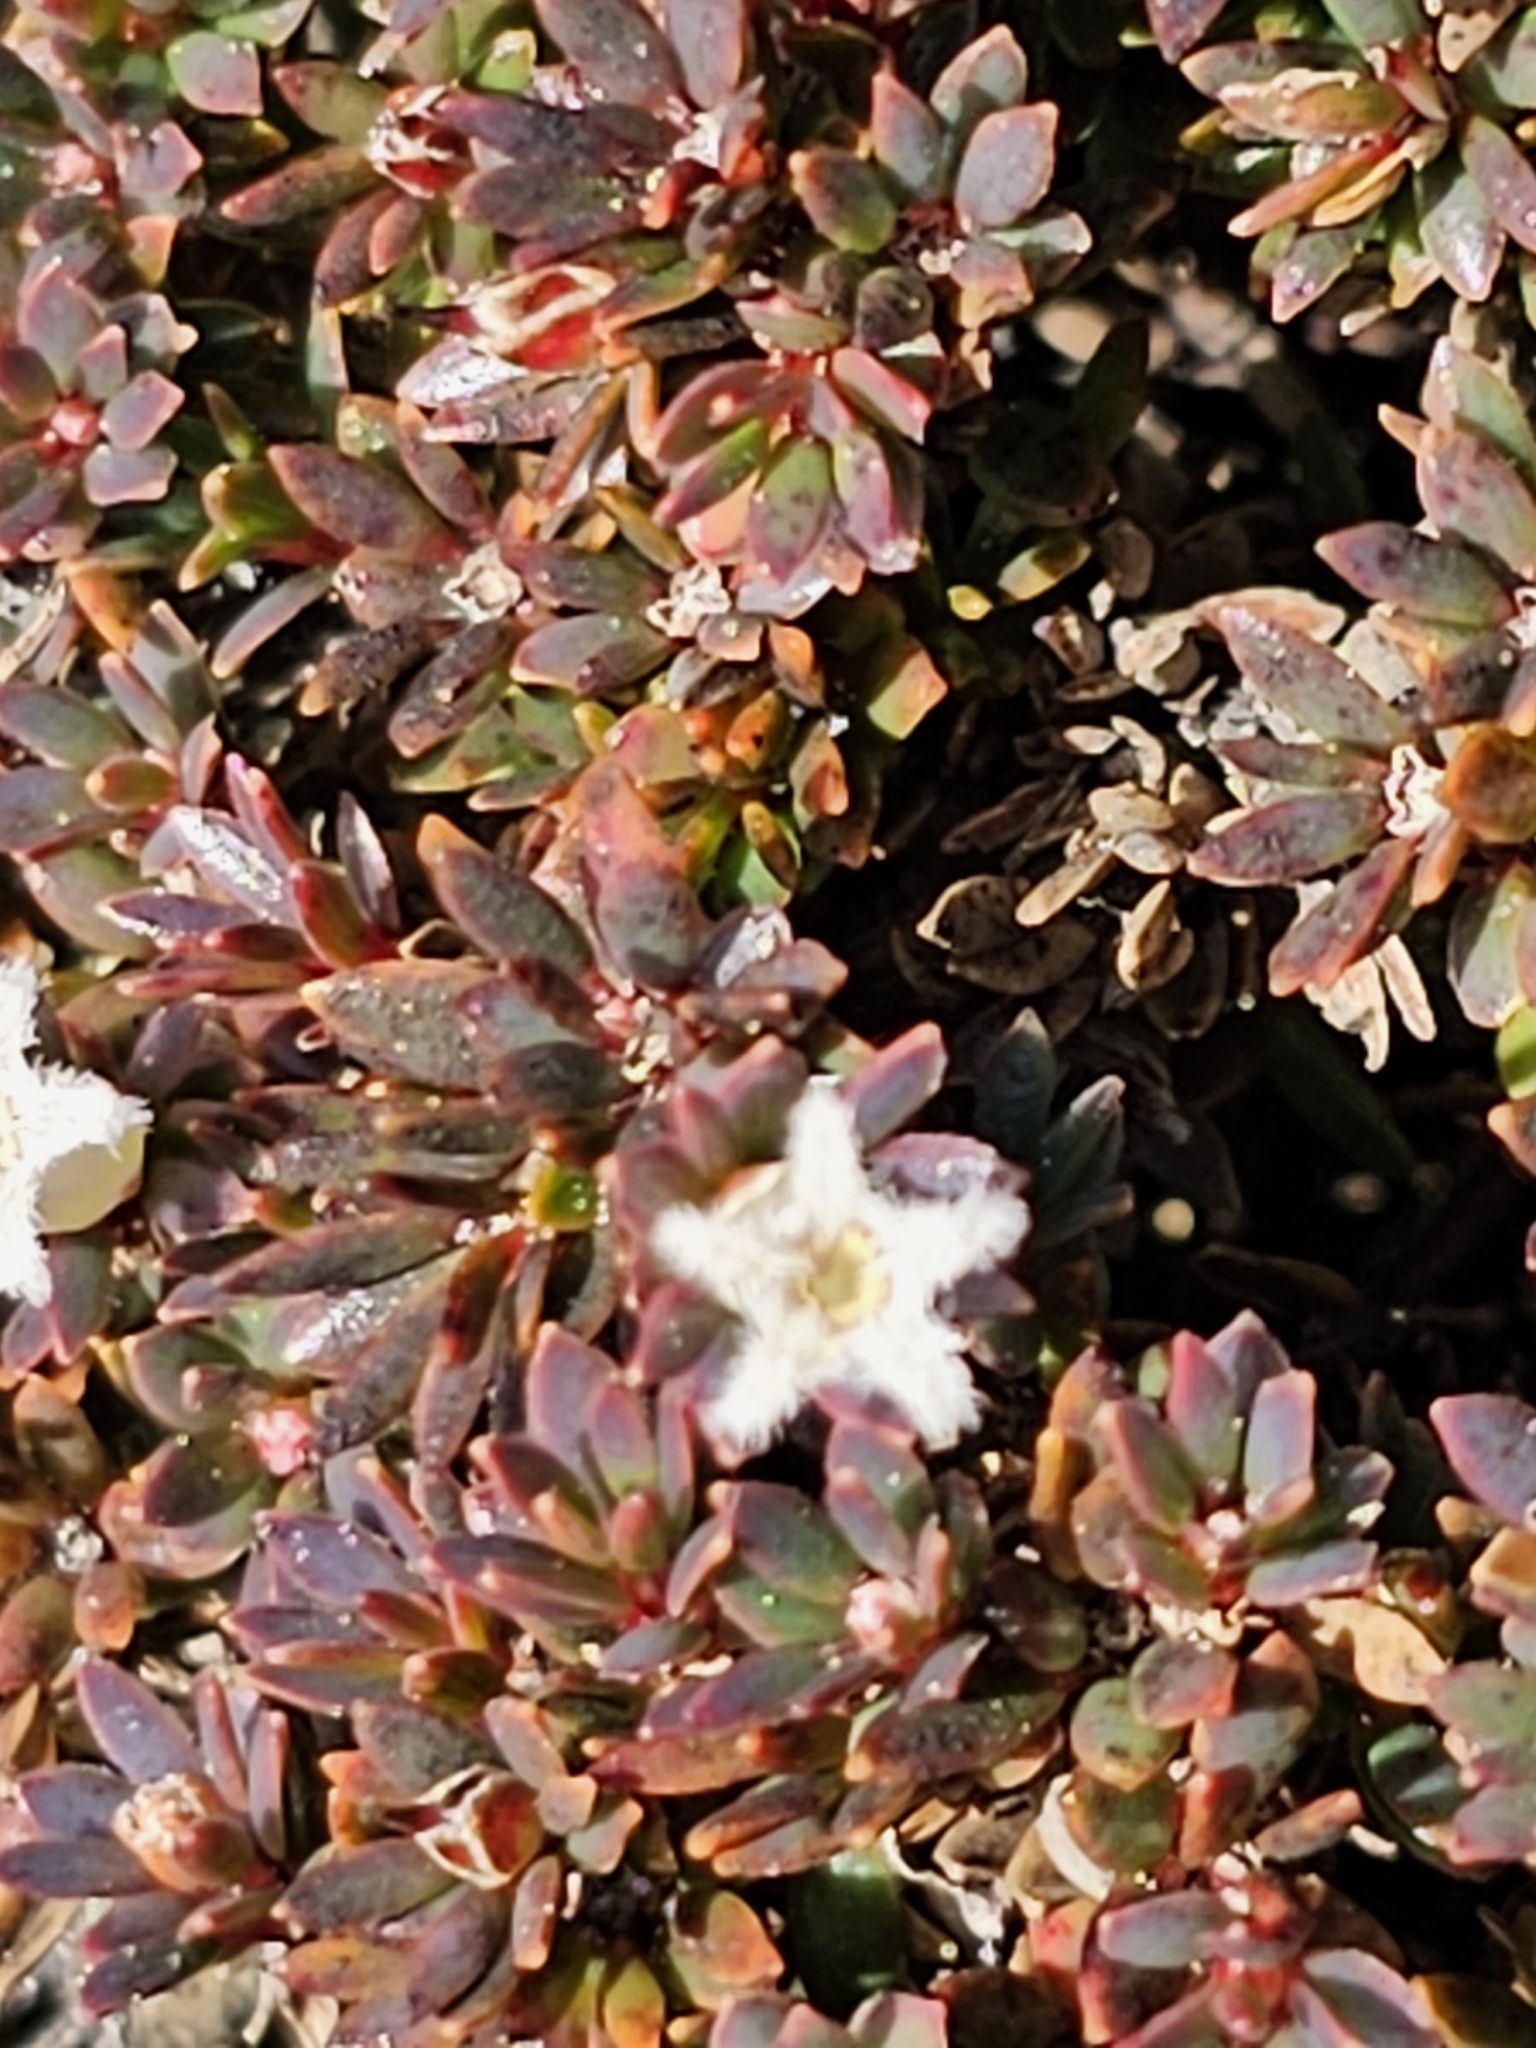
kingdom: Plantae
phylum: Tracheophyta
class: Magnoliopsida
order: Ericales
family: Ericaceae
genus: Pentachondra
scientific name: Pentachondra pumila
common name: Carpet-heath
